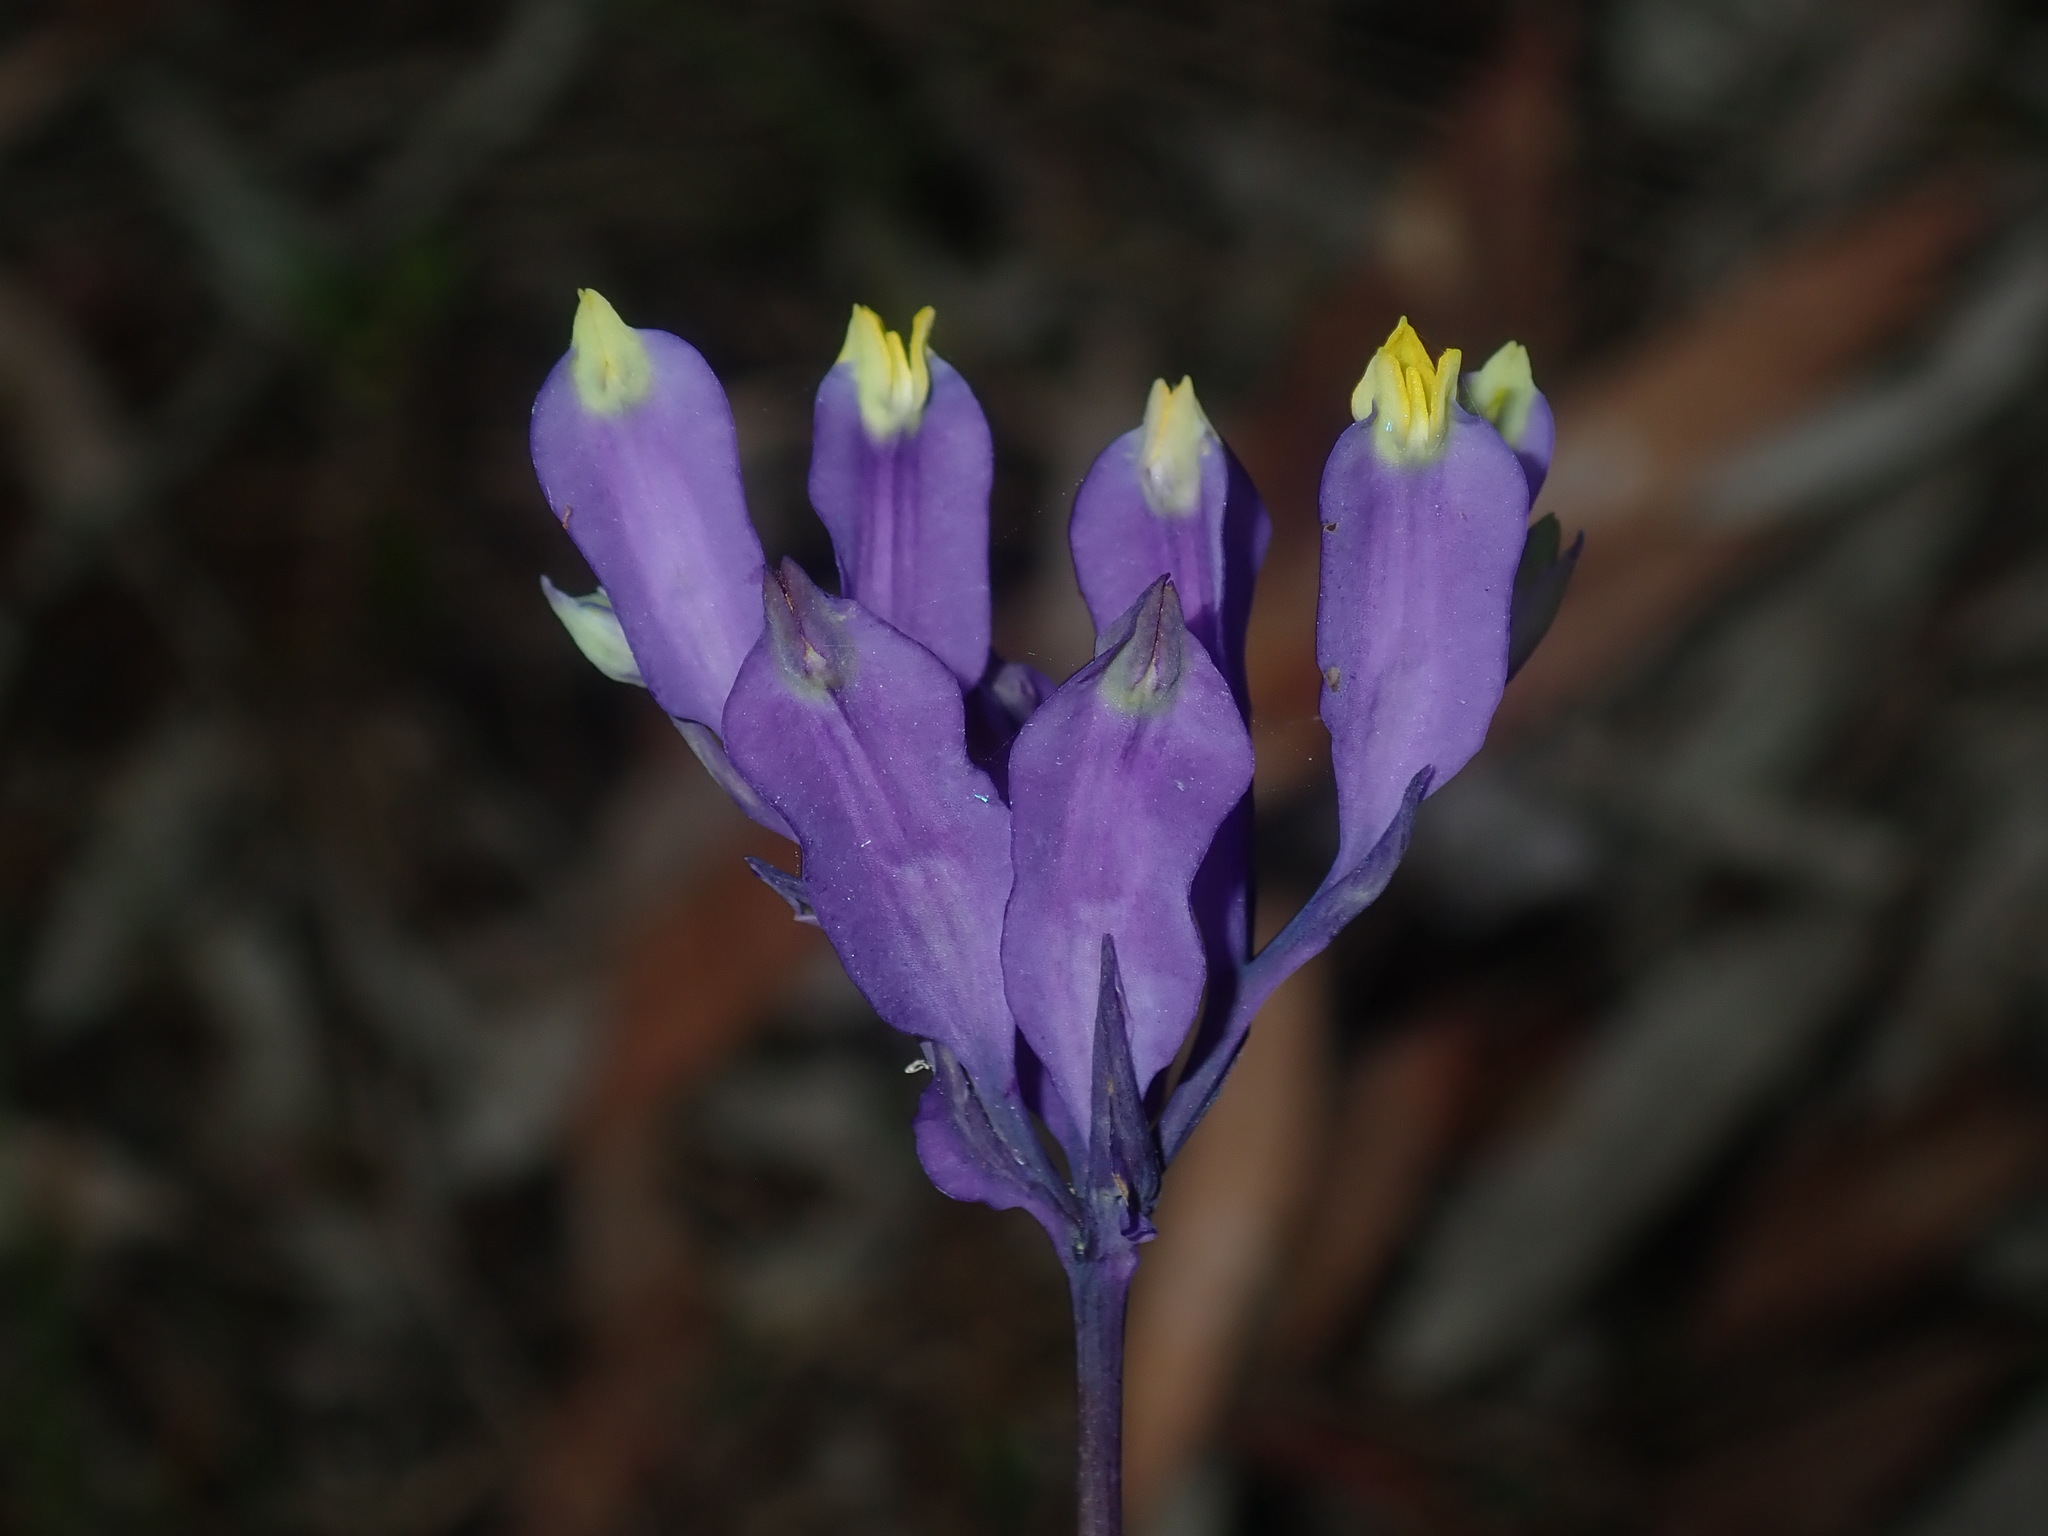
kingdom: Plantae
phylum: Tracheophyta
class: Liliopsida
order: Dioscoreales
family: Burmanniaceae
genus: Burmannia
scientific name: Burmannia disticha
